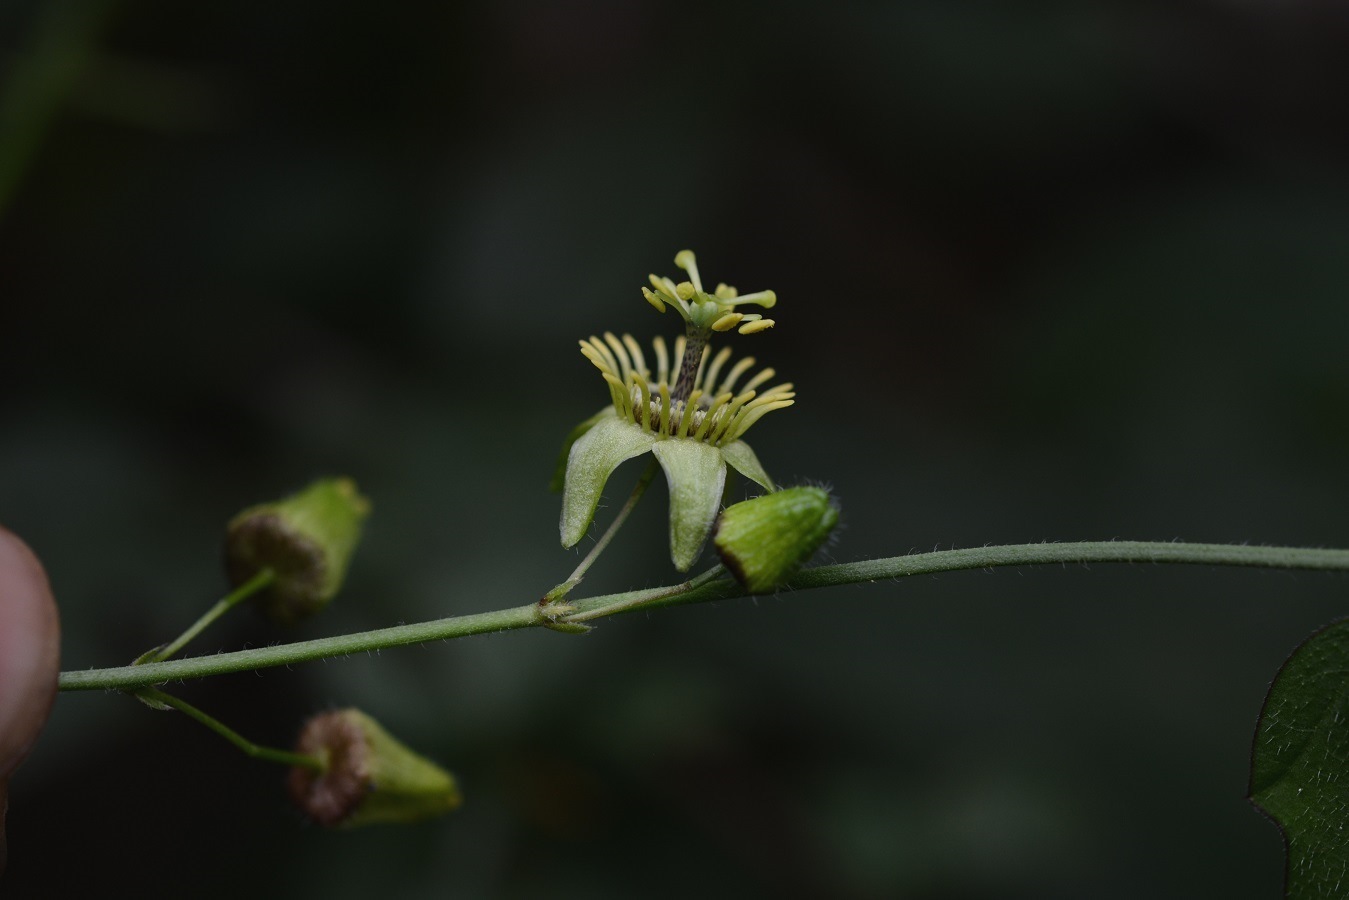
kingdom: Plantae
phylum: Tracheophyta
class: Magnoliopsida
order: Malpighiales
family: Passifloraceae
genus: Passiflora
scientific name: Passiflora suberosa
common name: Wild passionfruit
